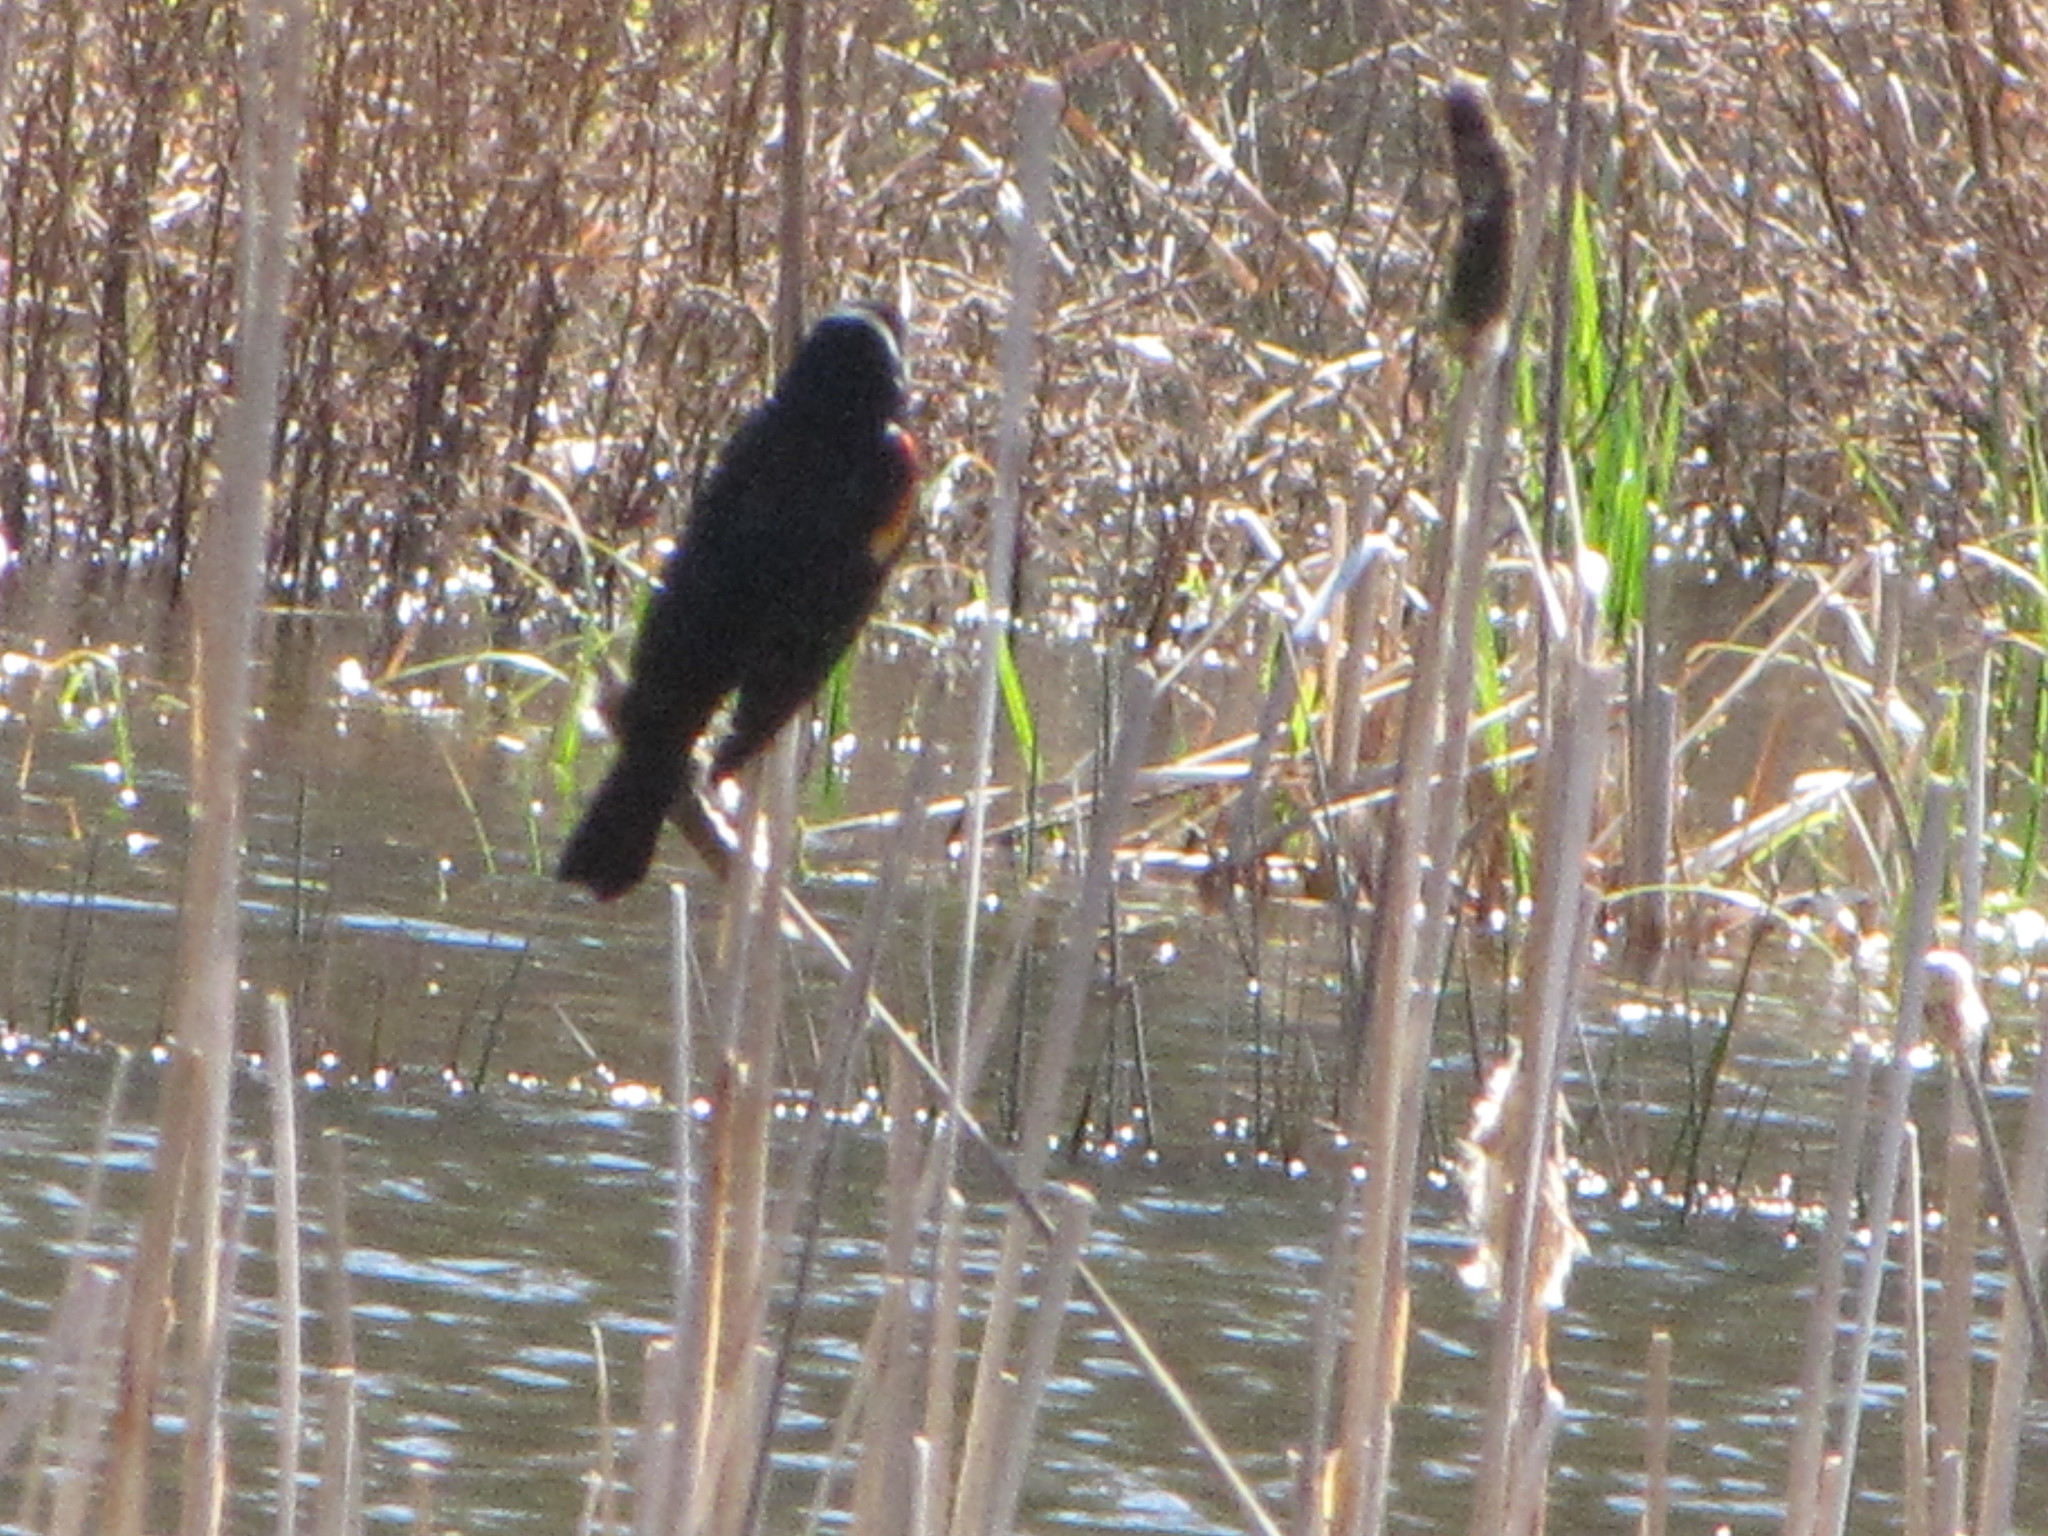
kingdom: Animalia
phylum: Chordata
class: Aves
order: Passeriformes
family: Icteridae
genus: Agelaius
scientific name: Agelaius phoeniceus
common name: Red-winged blackbird
